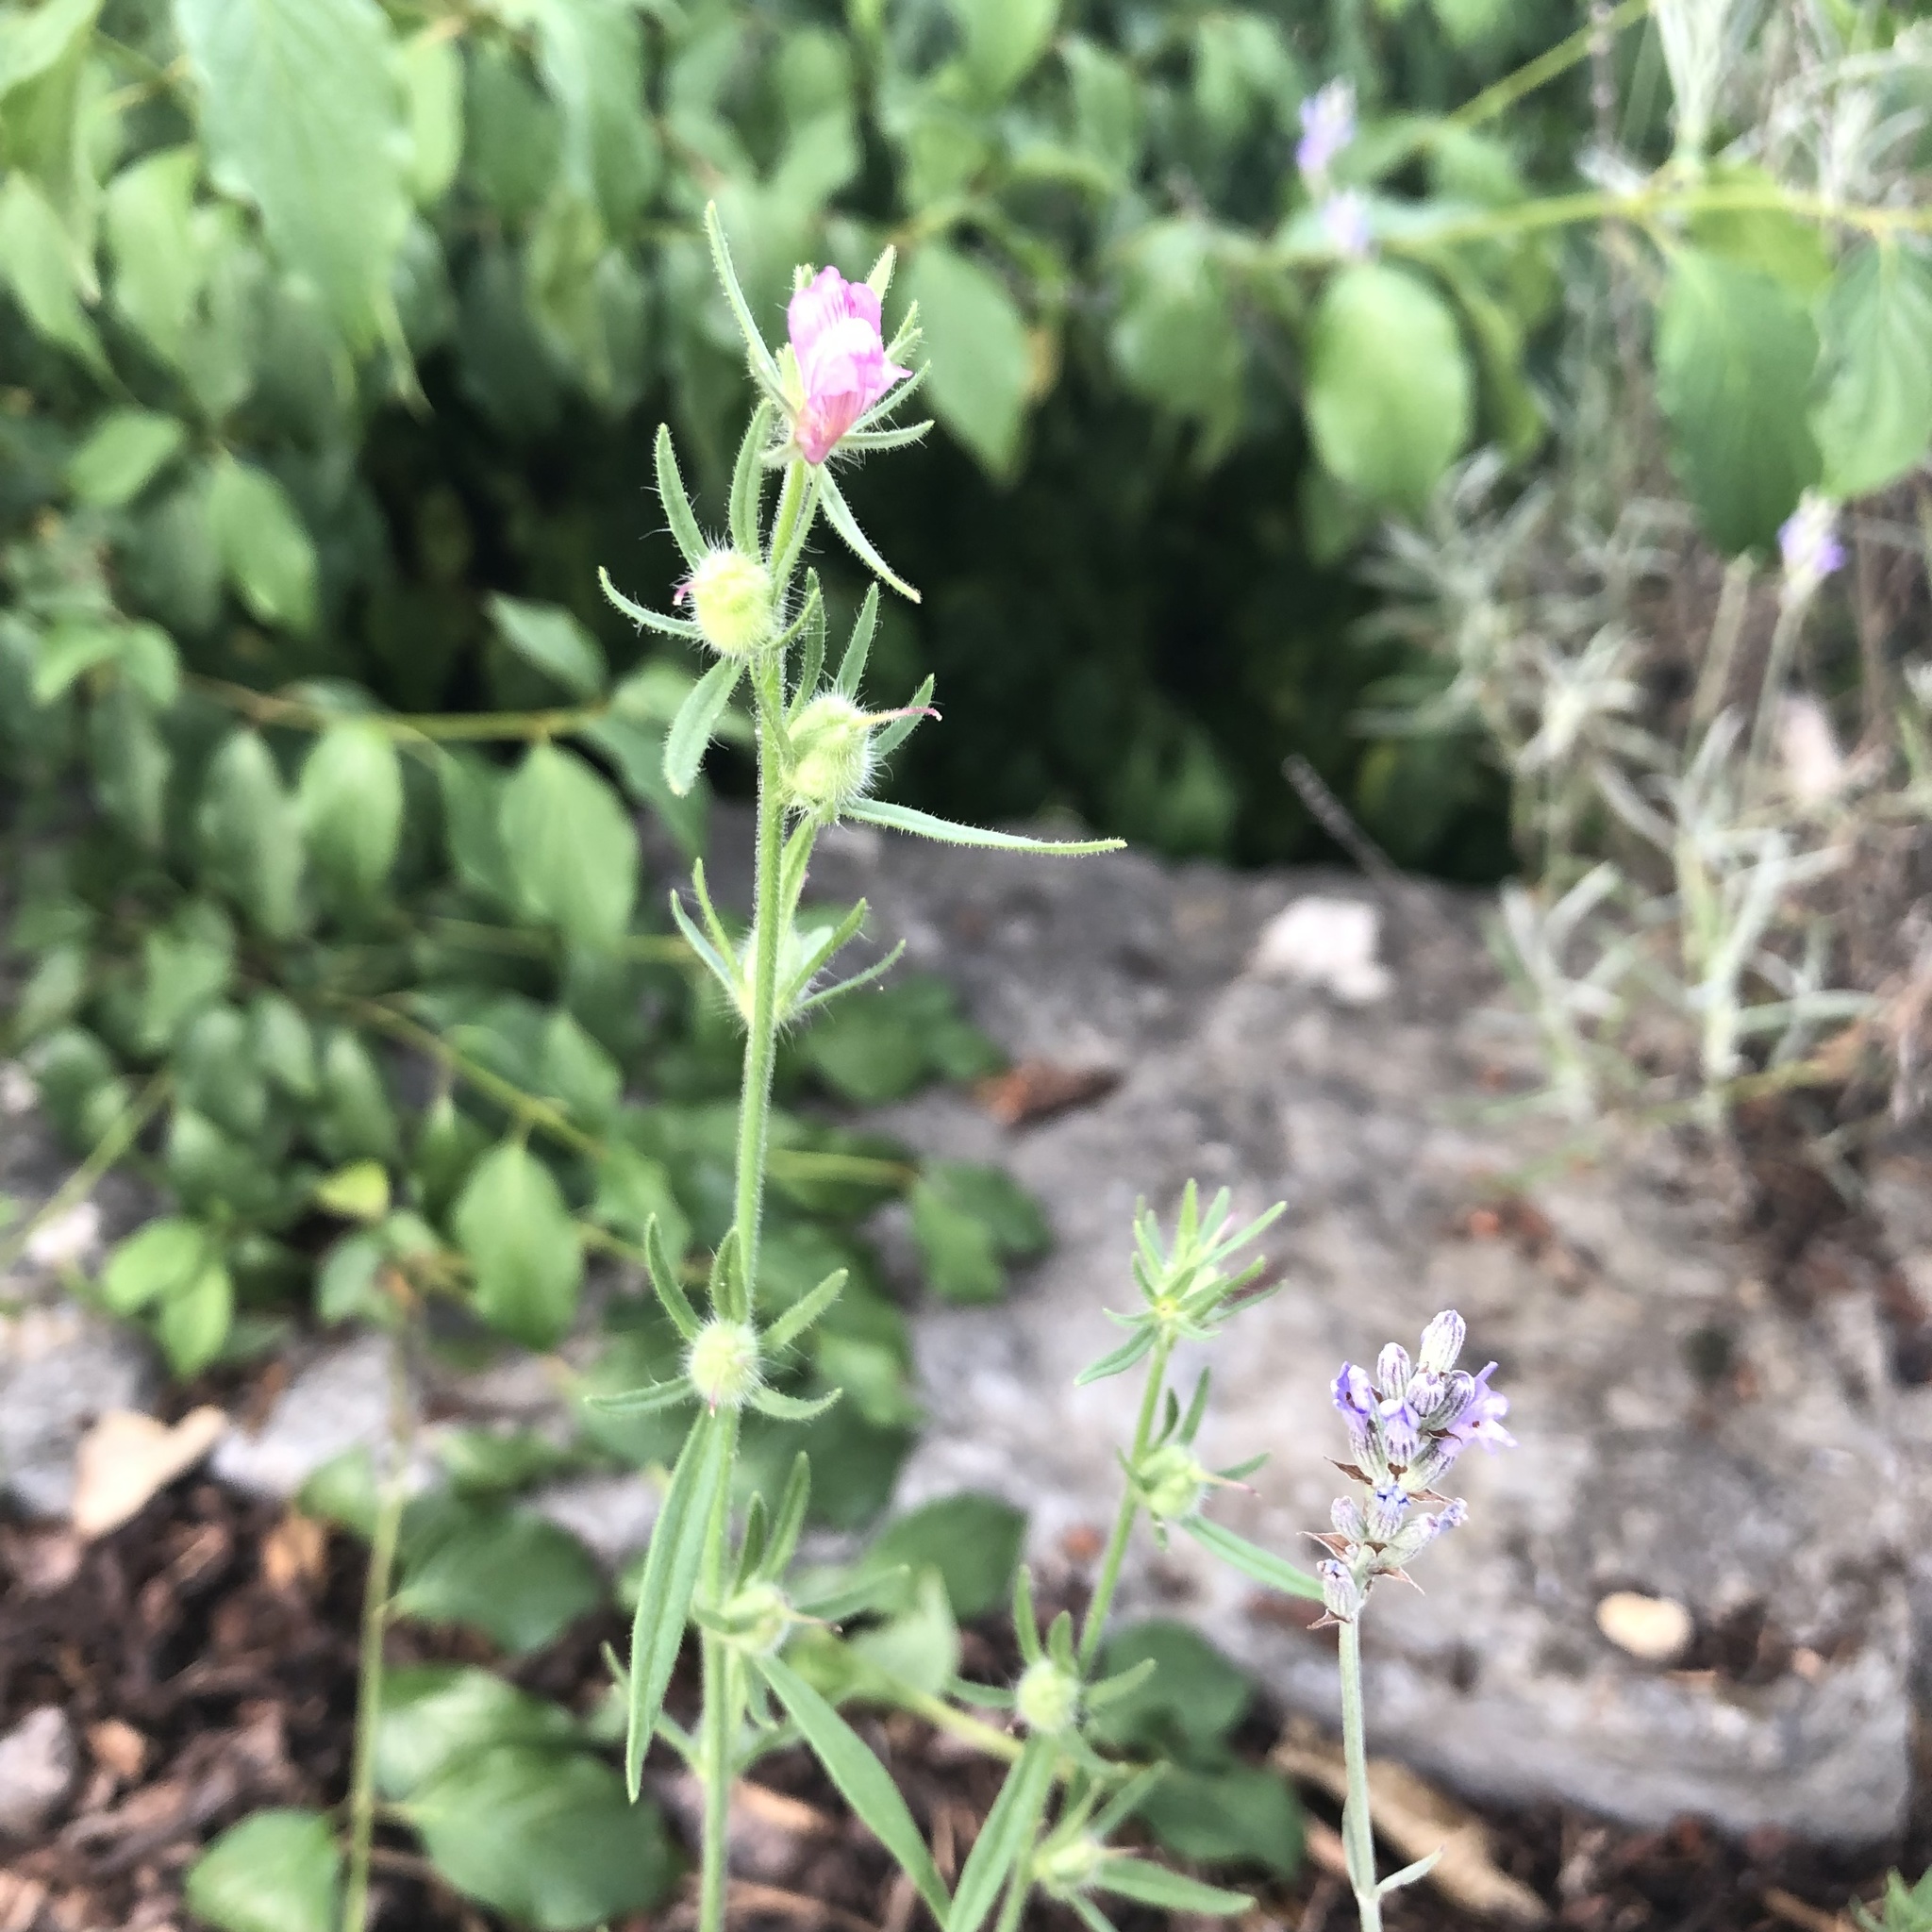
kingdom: Plantae
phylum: Tracheophyta
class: Magnoliopsida
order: Lamiales
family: Plantaginaceae
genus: Misopates
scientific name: Misopates orontium
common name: Weasel's-snout
